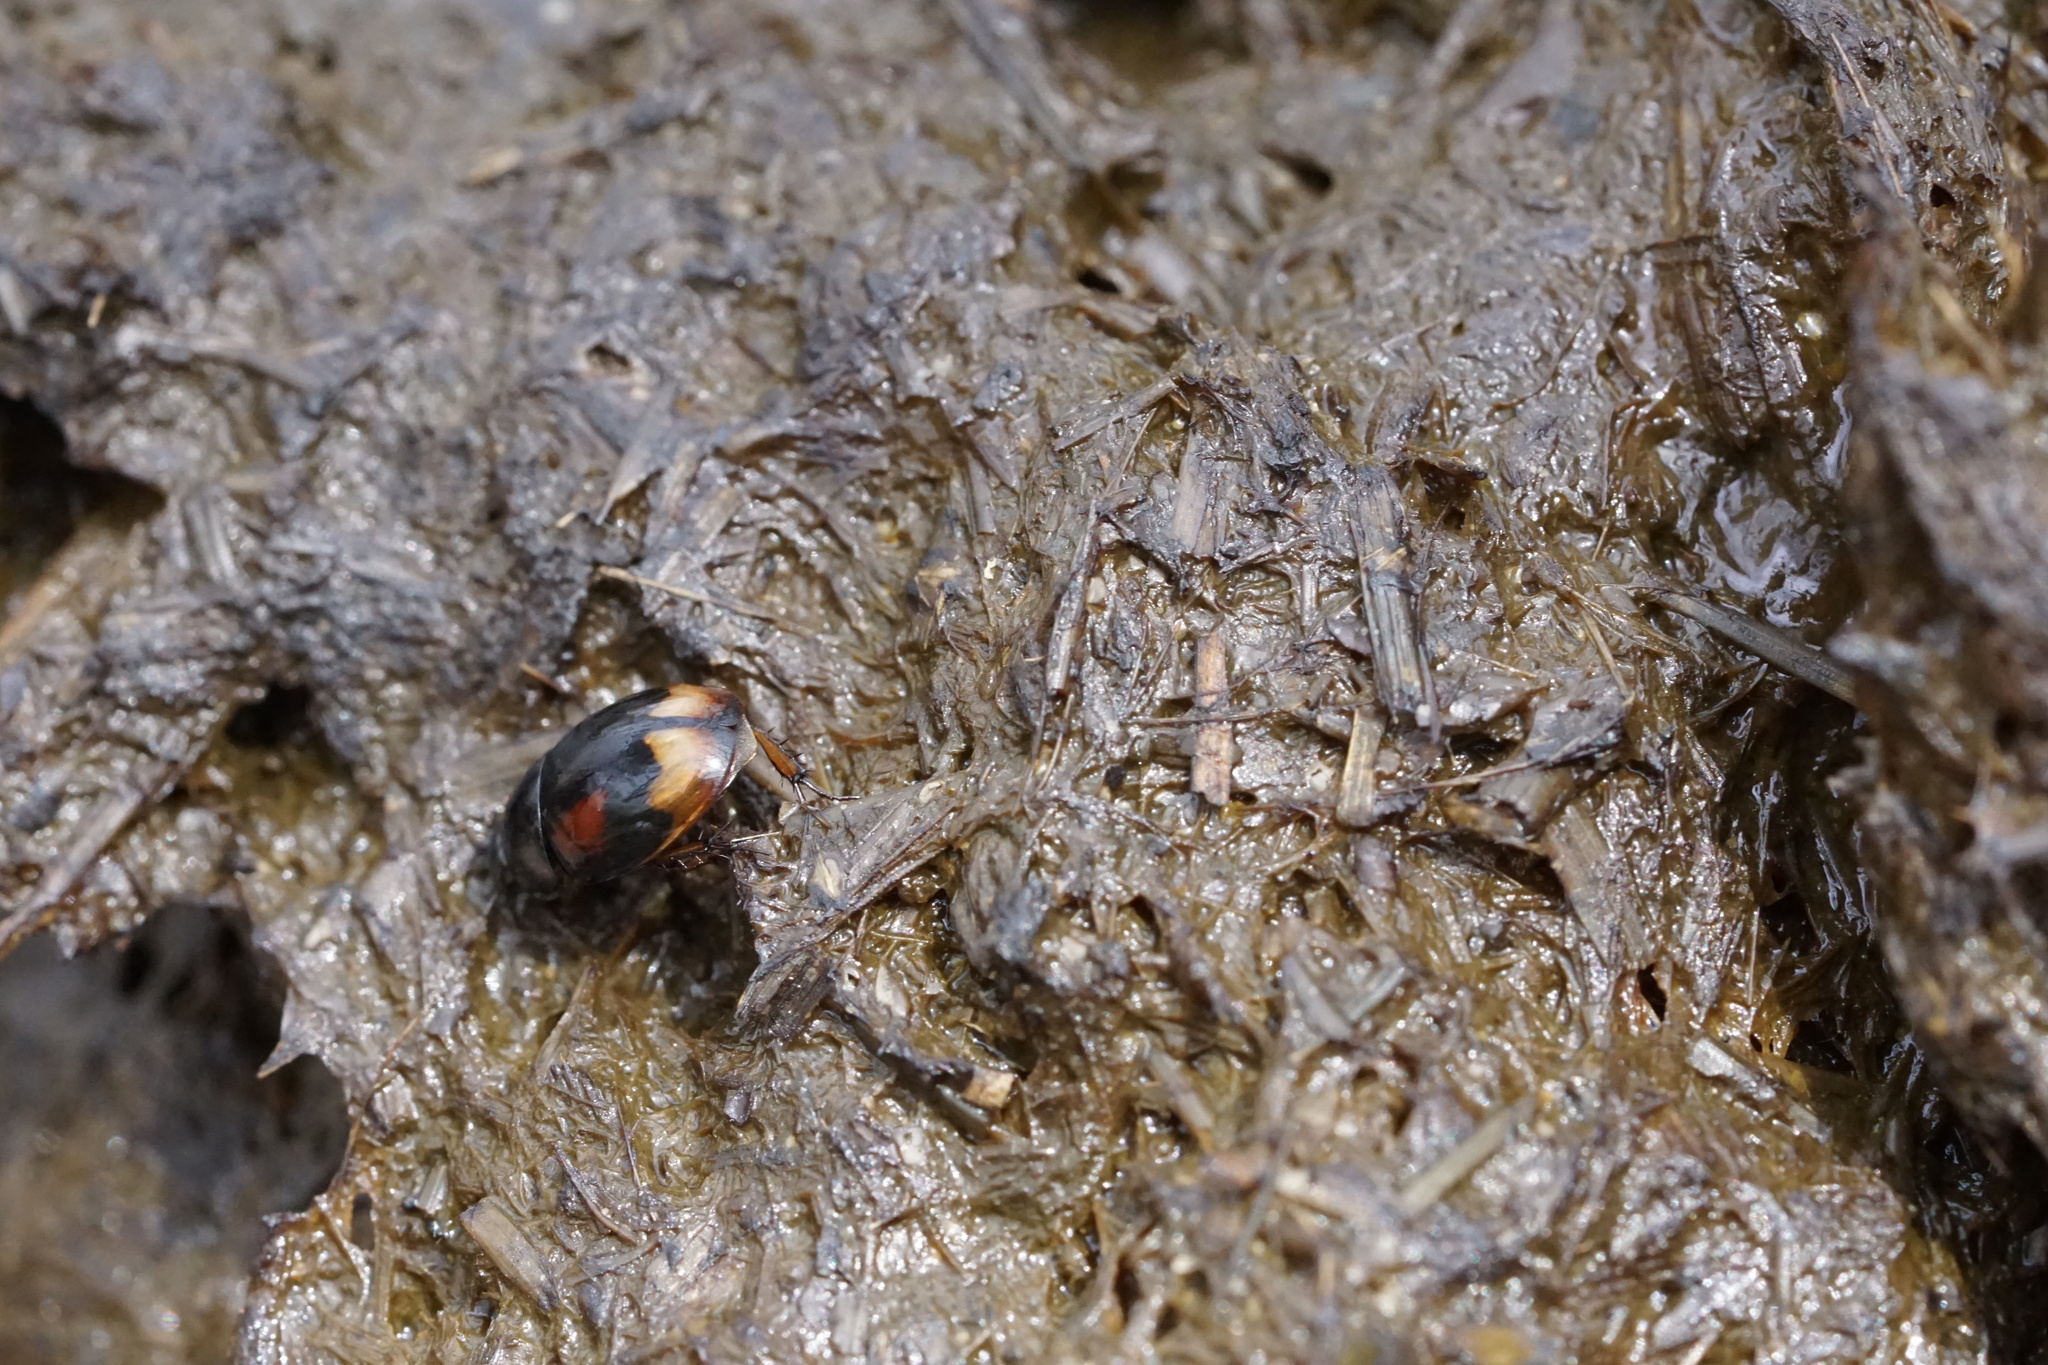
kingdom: Animalia
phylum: Arthropoda
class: Insecta
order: Coleoptera
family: Hydrophilidae
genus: Sphaeridium
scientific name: Sphaeridium
